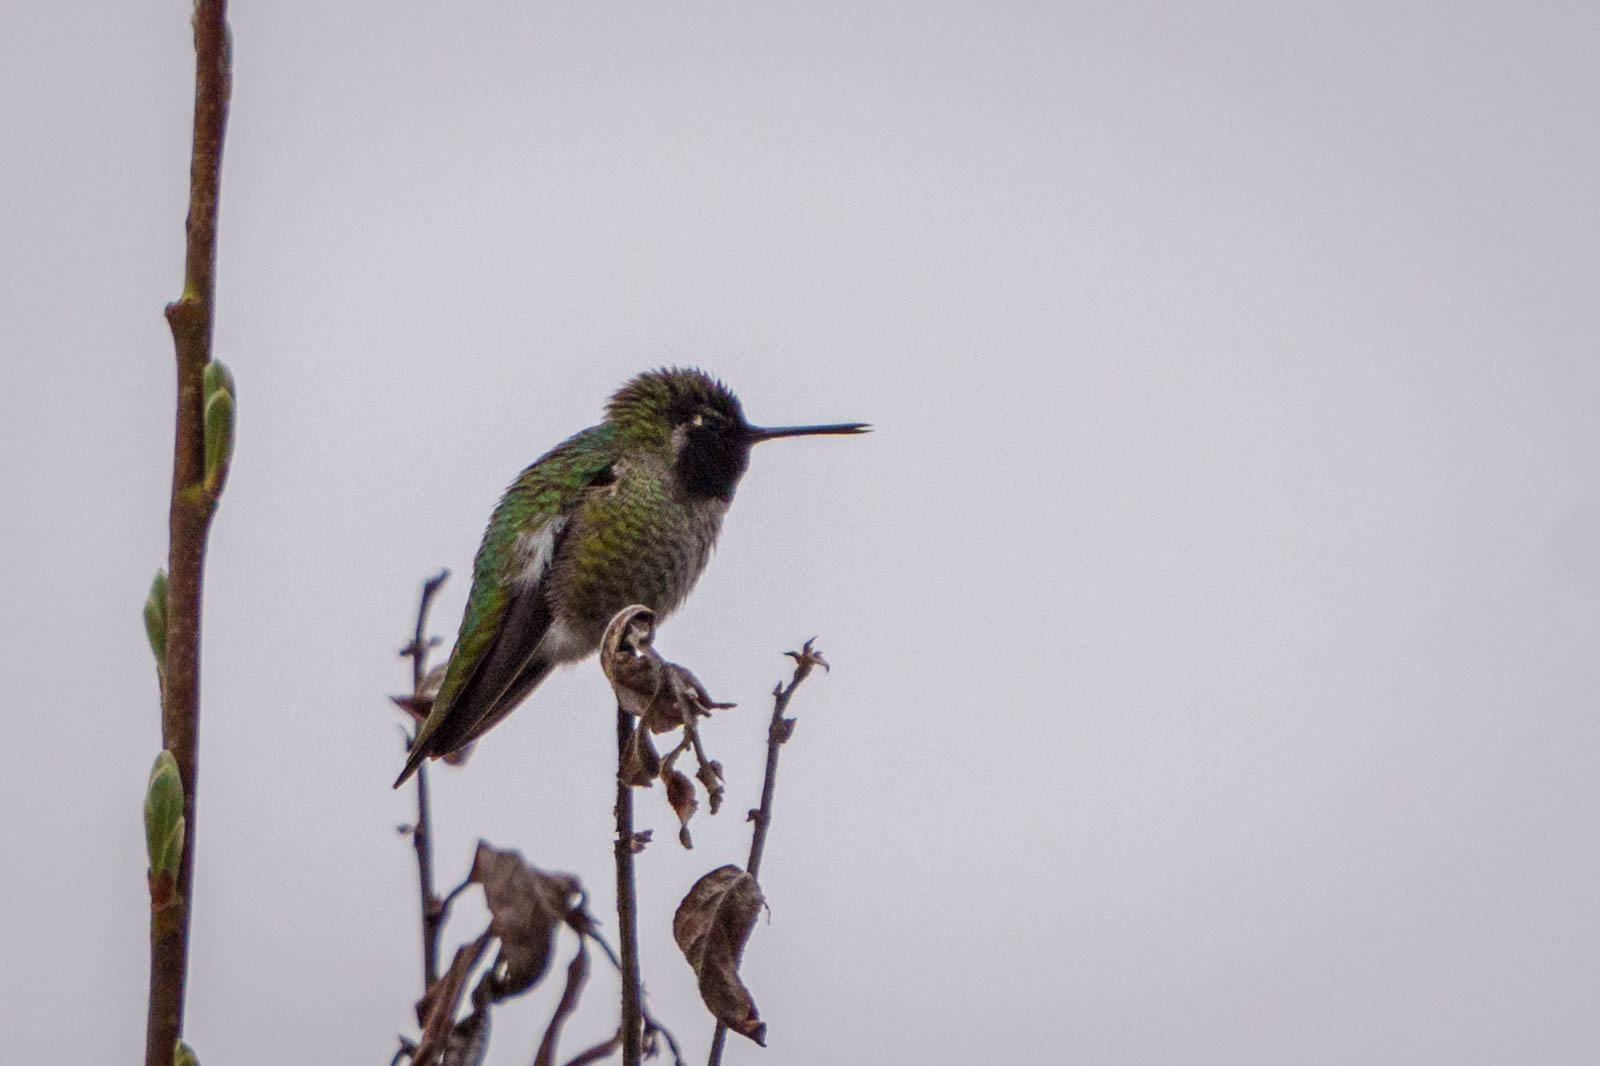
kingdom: Animalia
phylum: Chordata
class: Aves
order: Apodiformes
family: Trochilidae
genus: Calypte
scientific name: Calypte anna
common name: Anna's hummingbird
